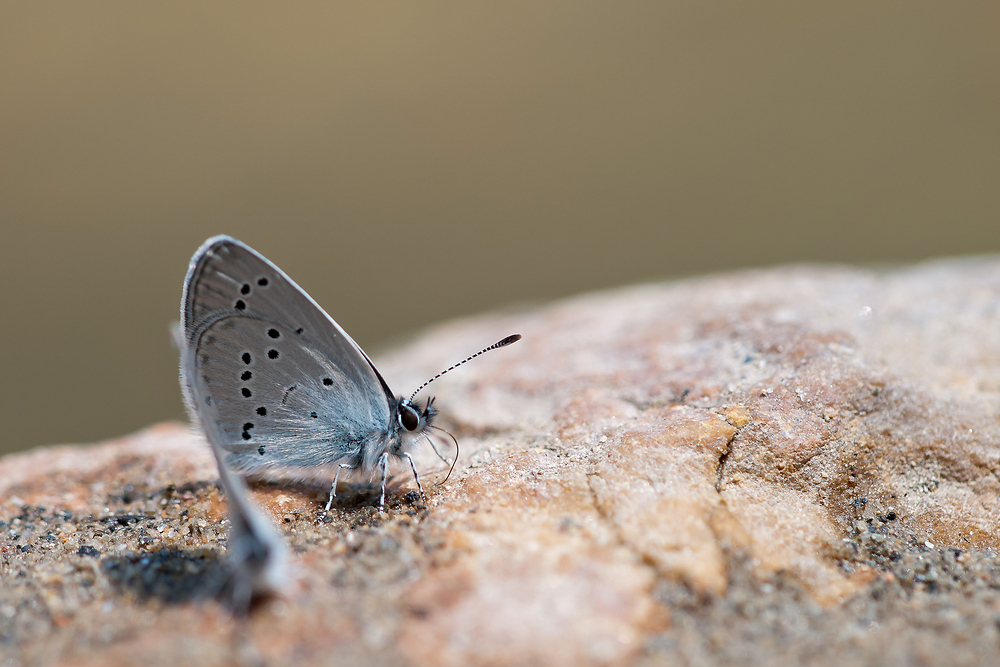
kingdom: Animalia
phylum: Arthropoda
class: Insecta
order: Lepidoptera
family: Lycaenidae
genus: Cupido
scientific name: Cupido minimus
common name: Small blue
